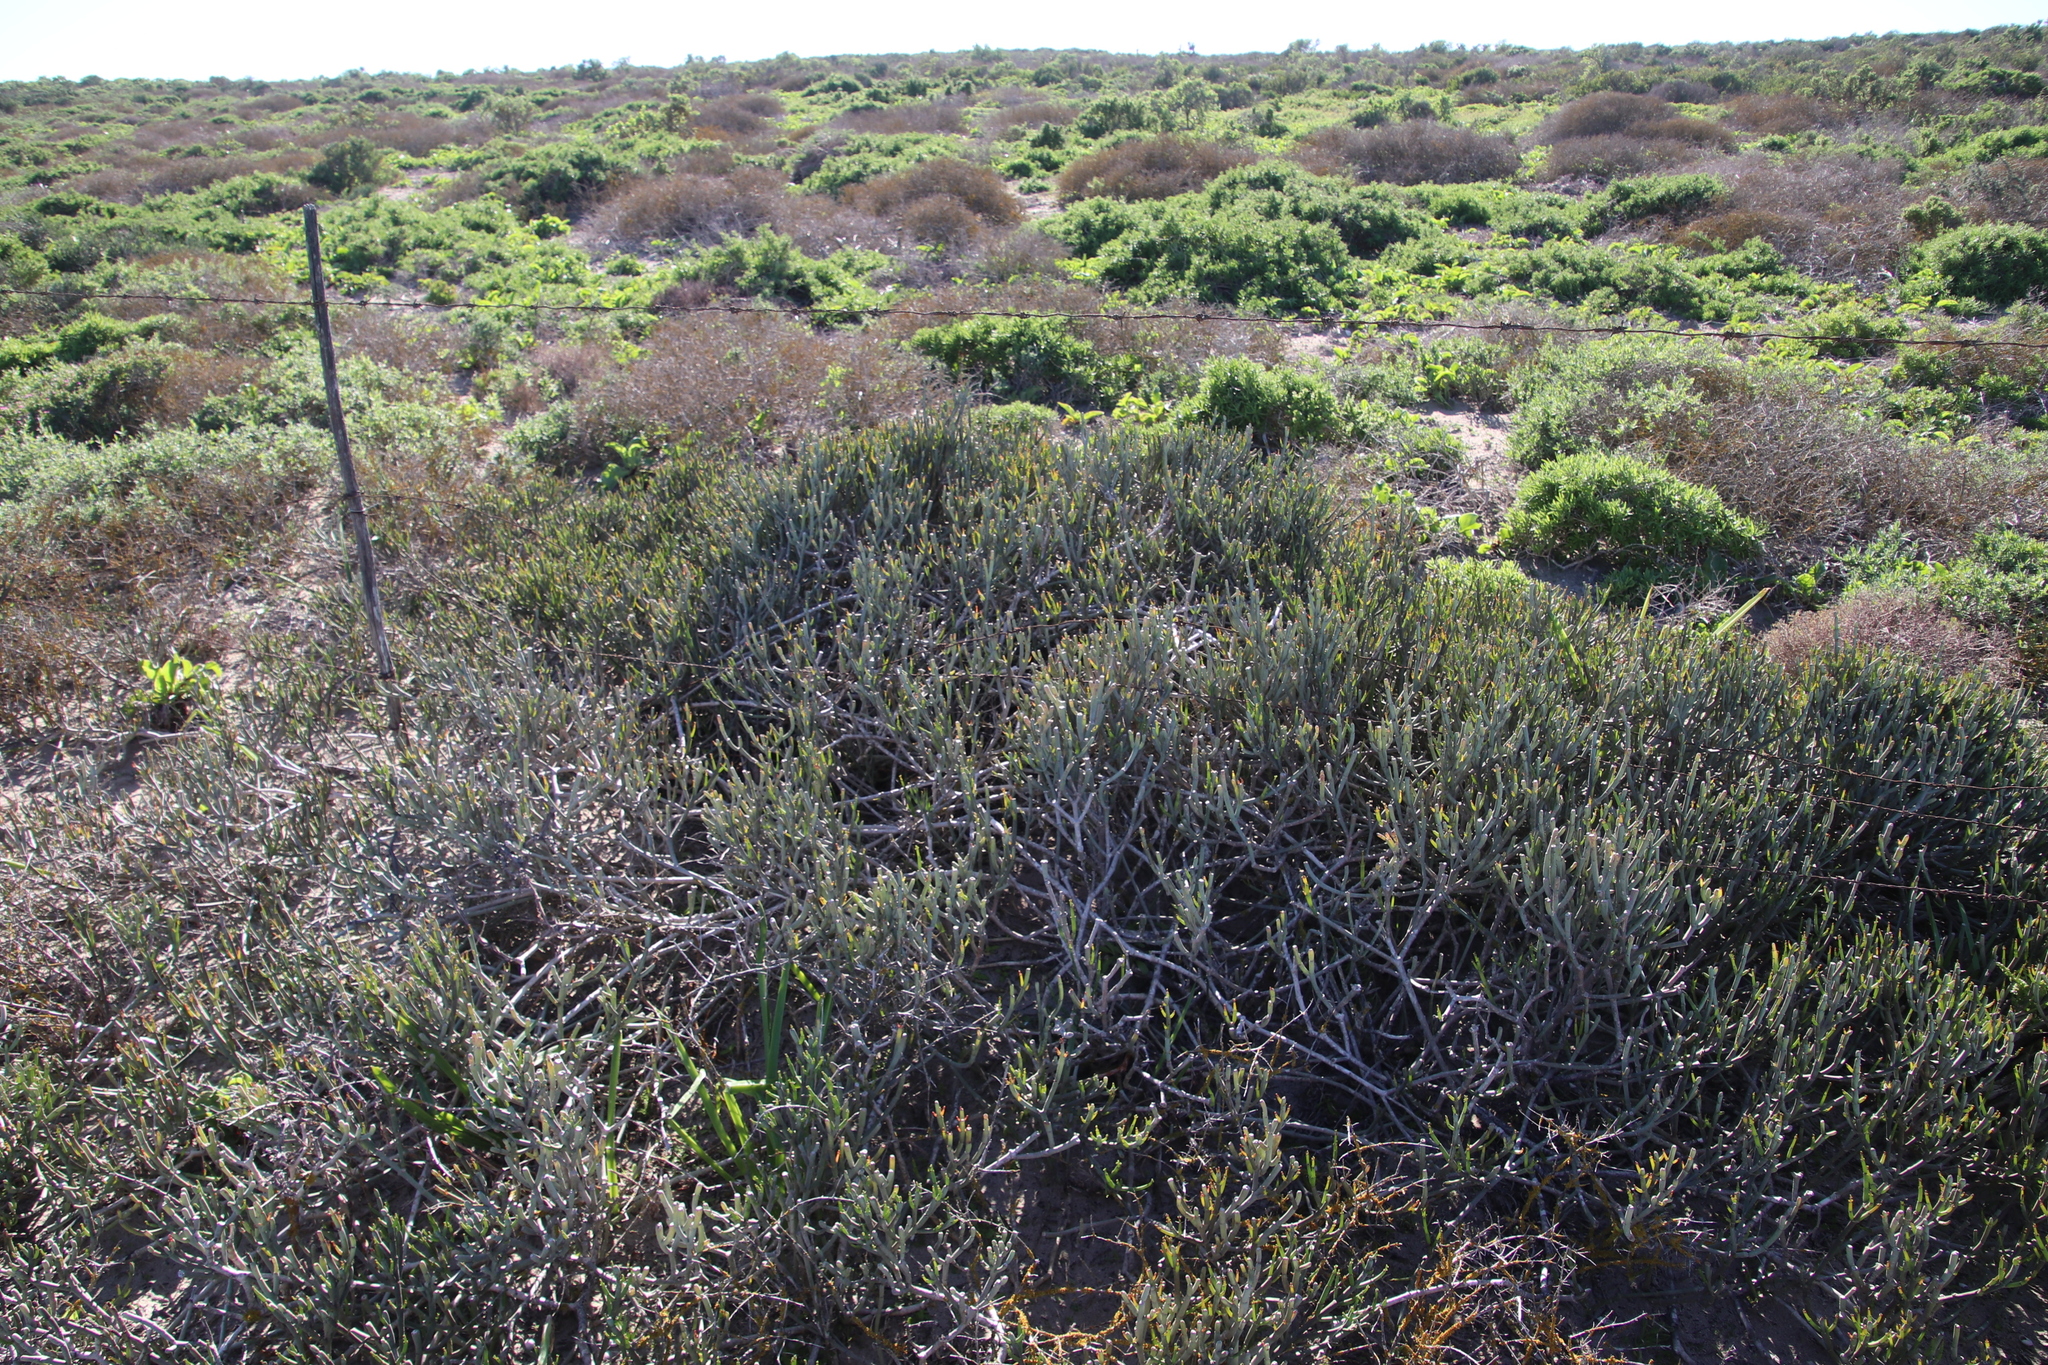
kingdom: Plantae
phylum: Tracheophyta
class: Magnoliopsida
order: Malpighiales
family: Euphorbiaceae
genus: Euphorbia
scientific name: Euphorbia burmanni
